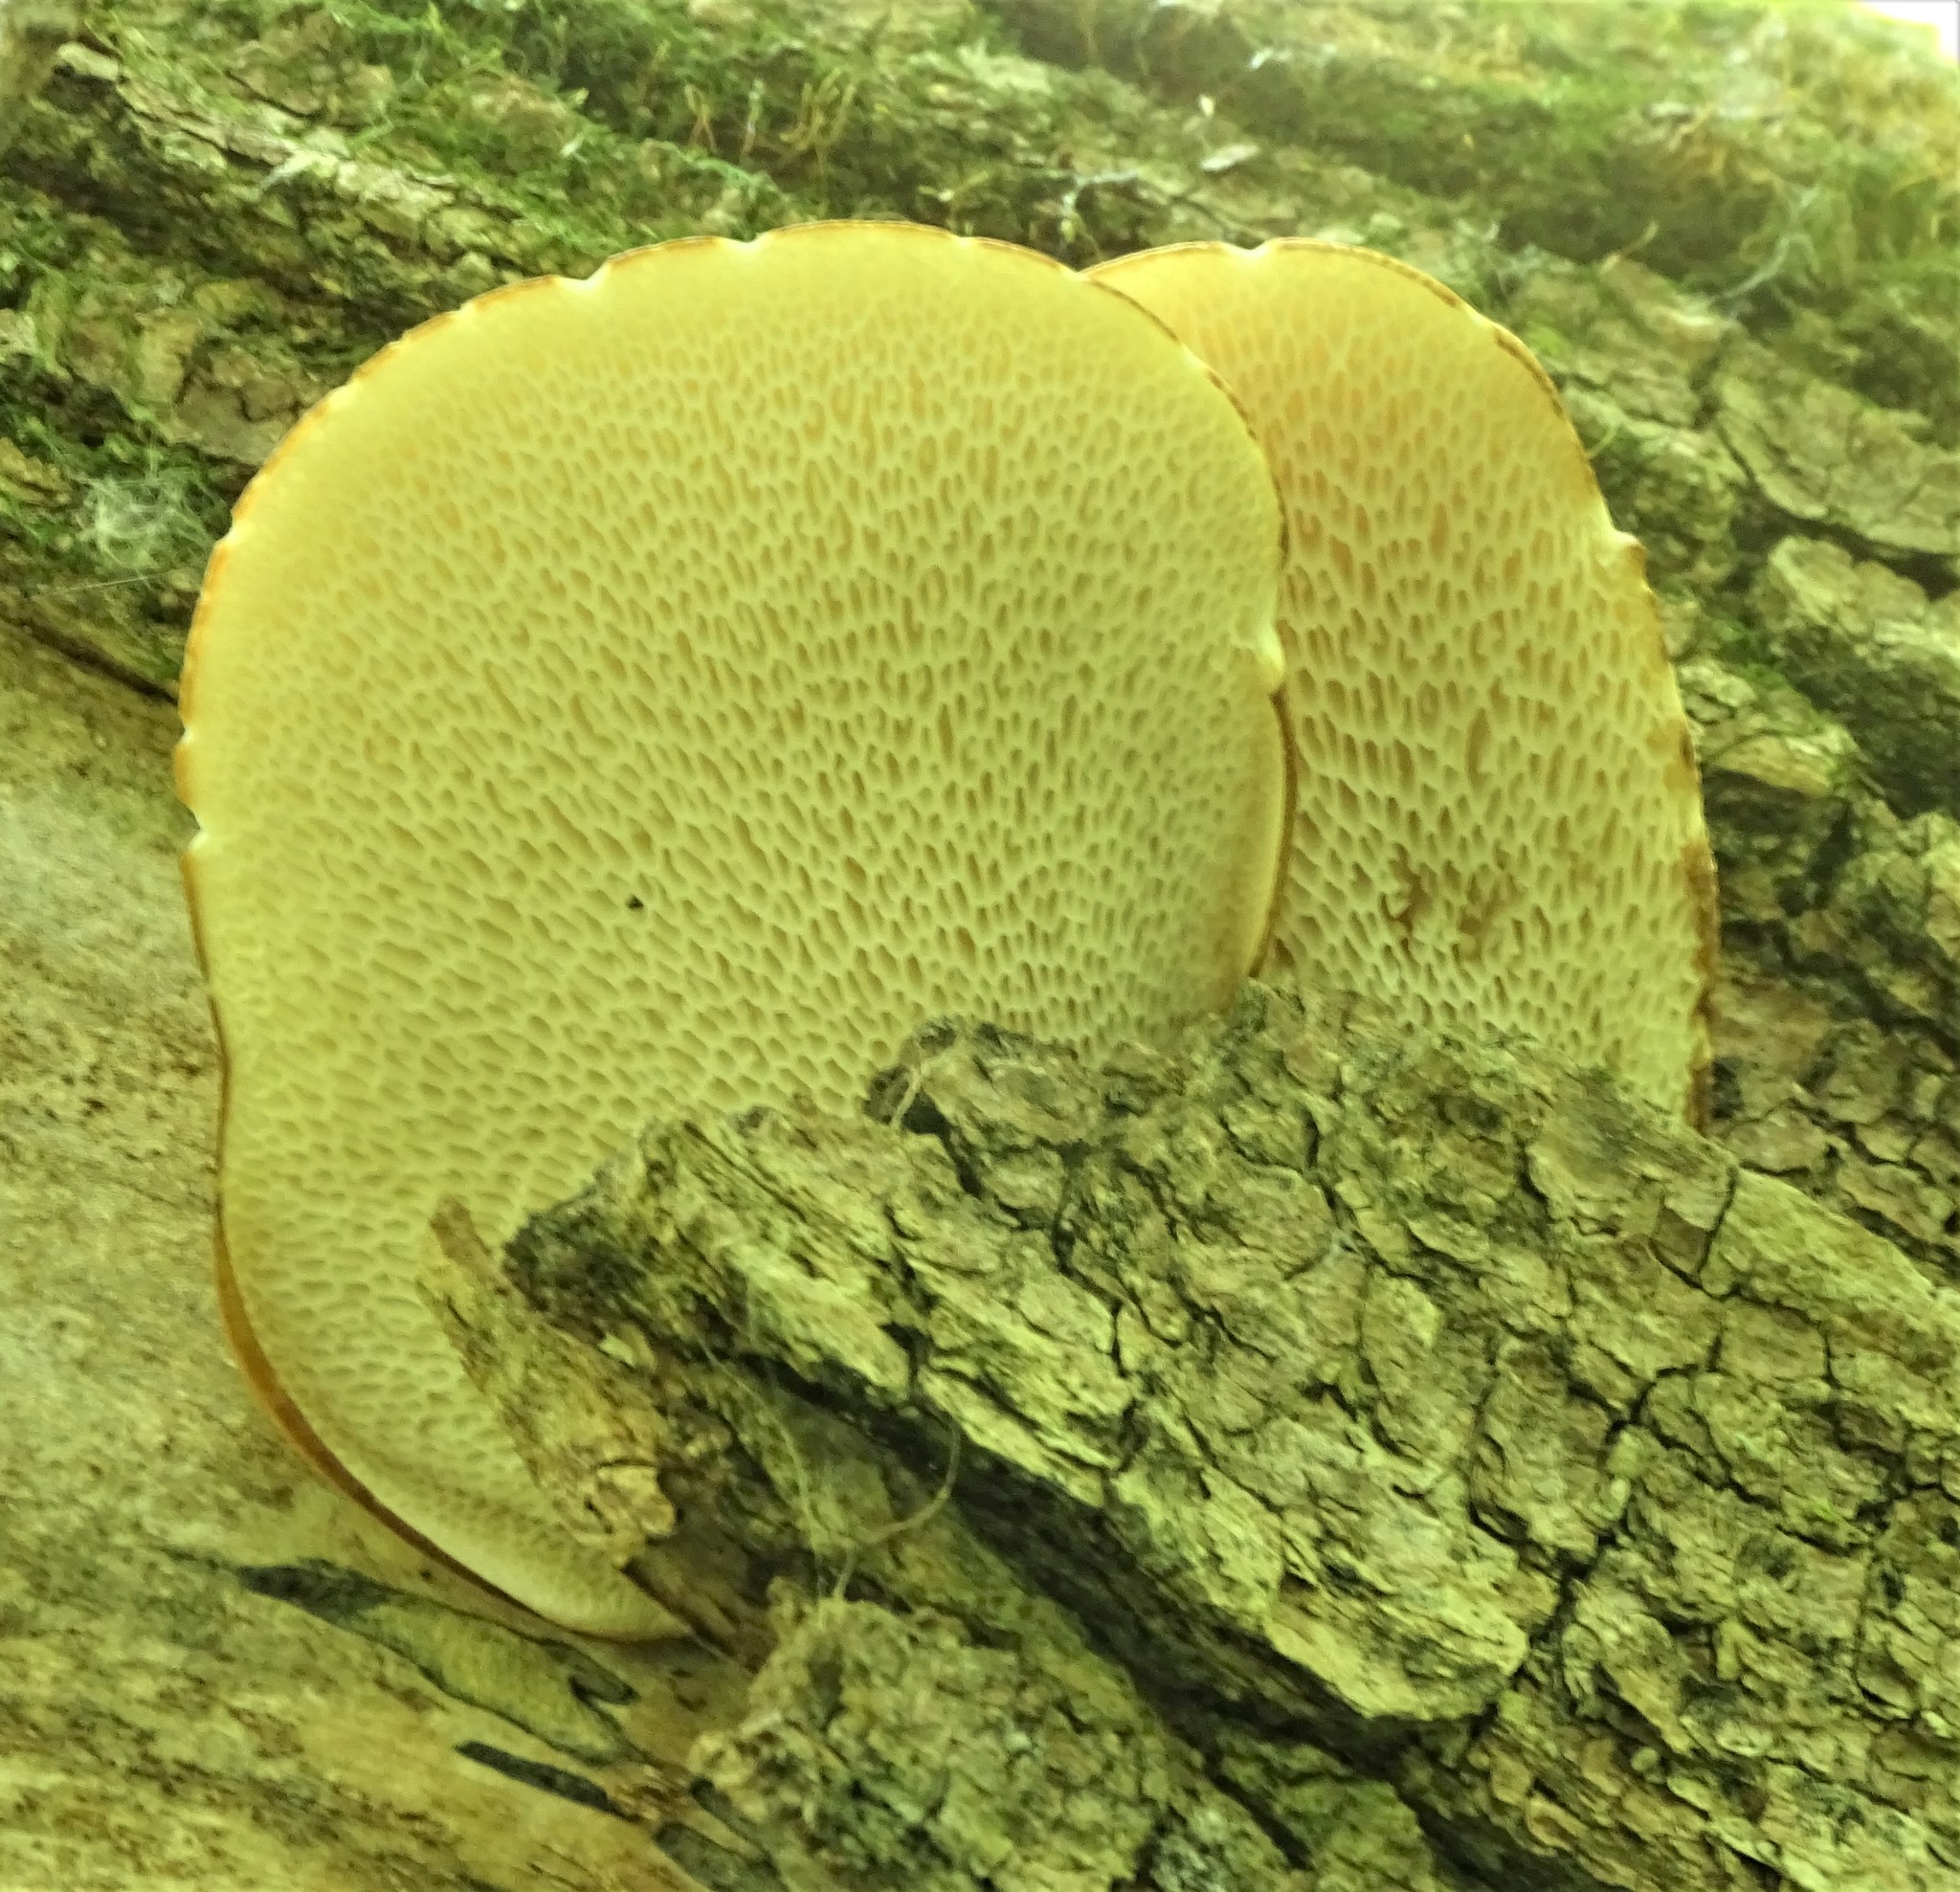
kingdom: Fungi
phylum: Basidiomycota
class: Agaricomycetes
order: Polyporales
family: Polyporaceae
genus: Cerioporus
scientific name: Cerioporus squamosus
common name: Dryad's saddle
